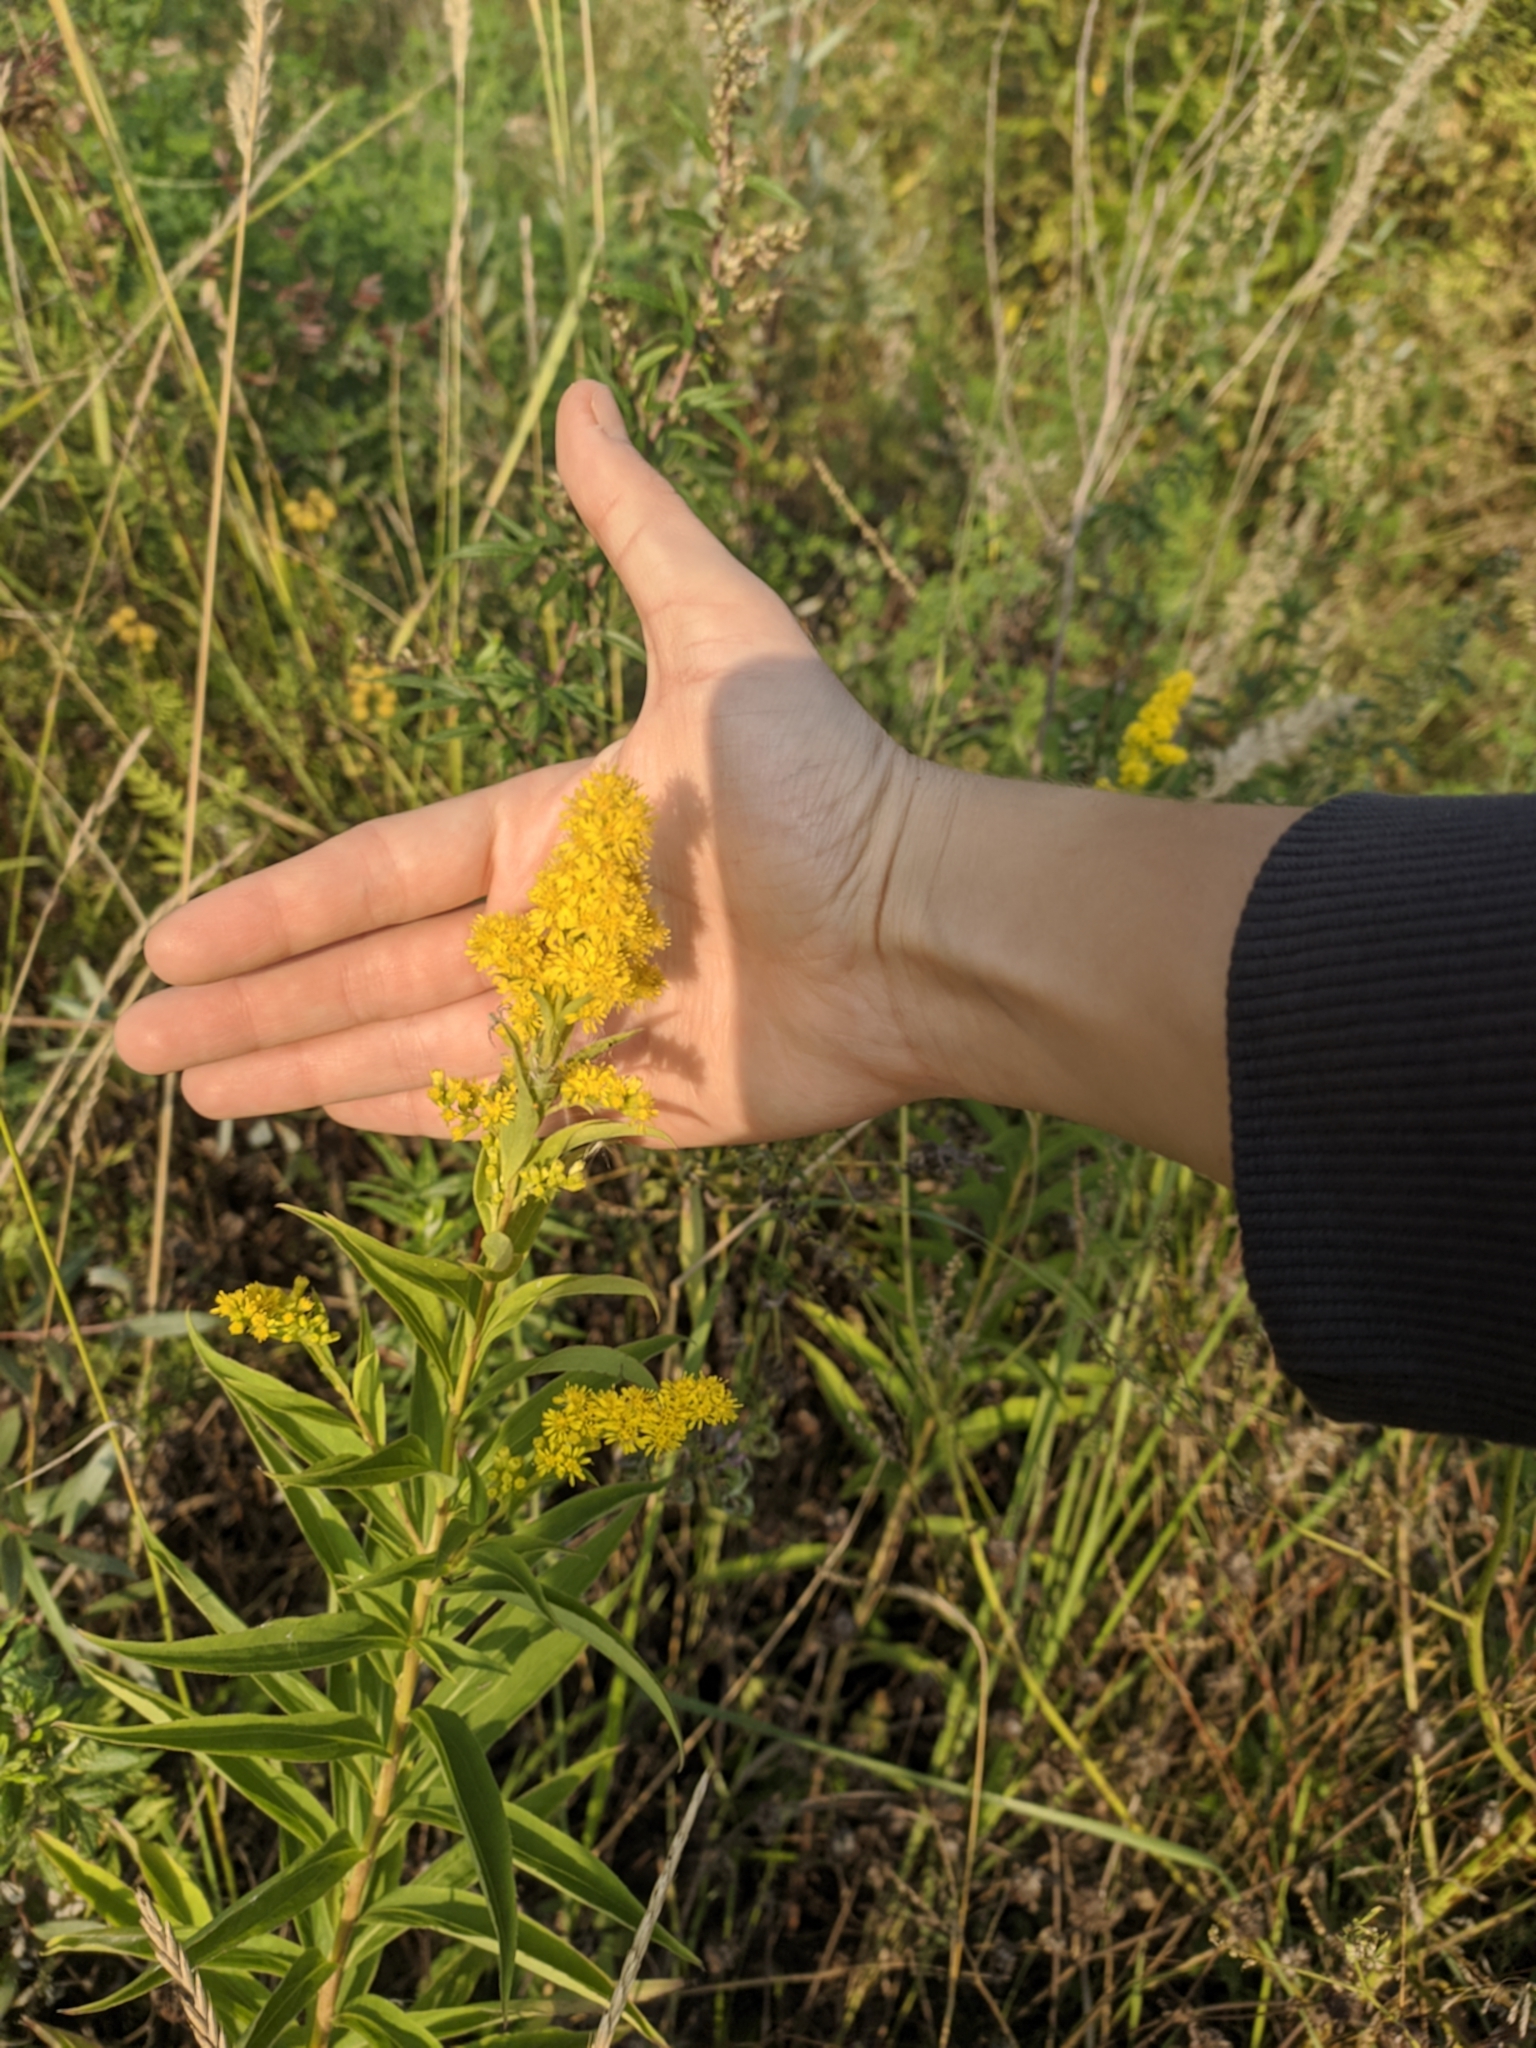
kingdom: Plantae
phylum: Tracheophyta
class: Magnoliopsida
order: Asterales
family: Asteraceae
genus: Solidago
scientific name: Solidago gigantea
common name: Giant goldenrod
